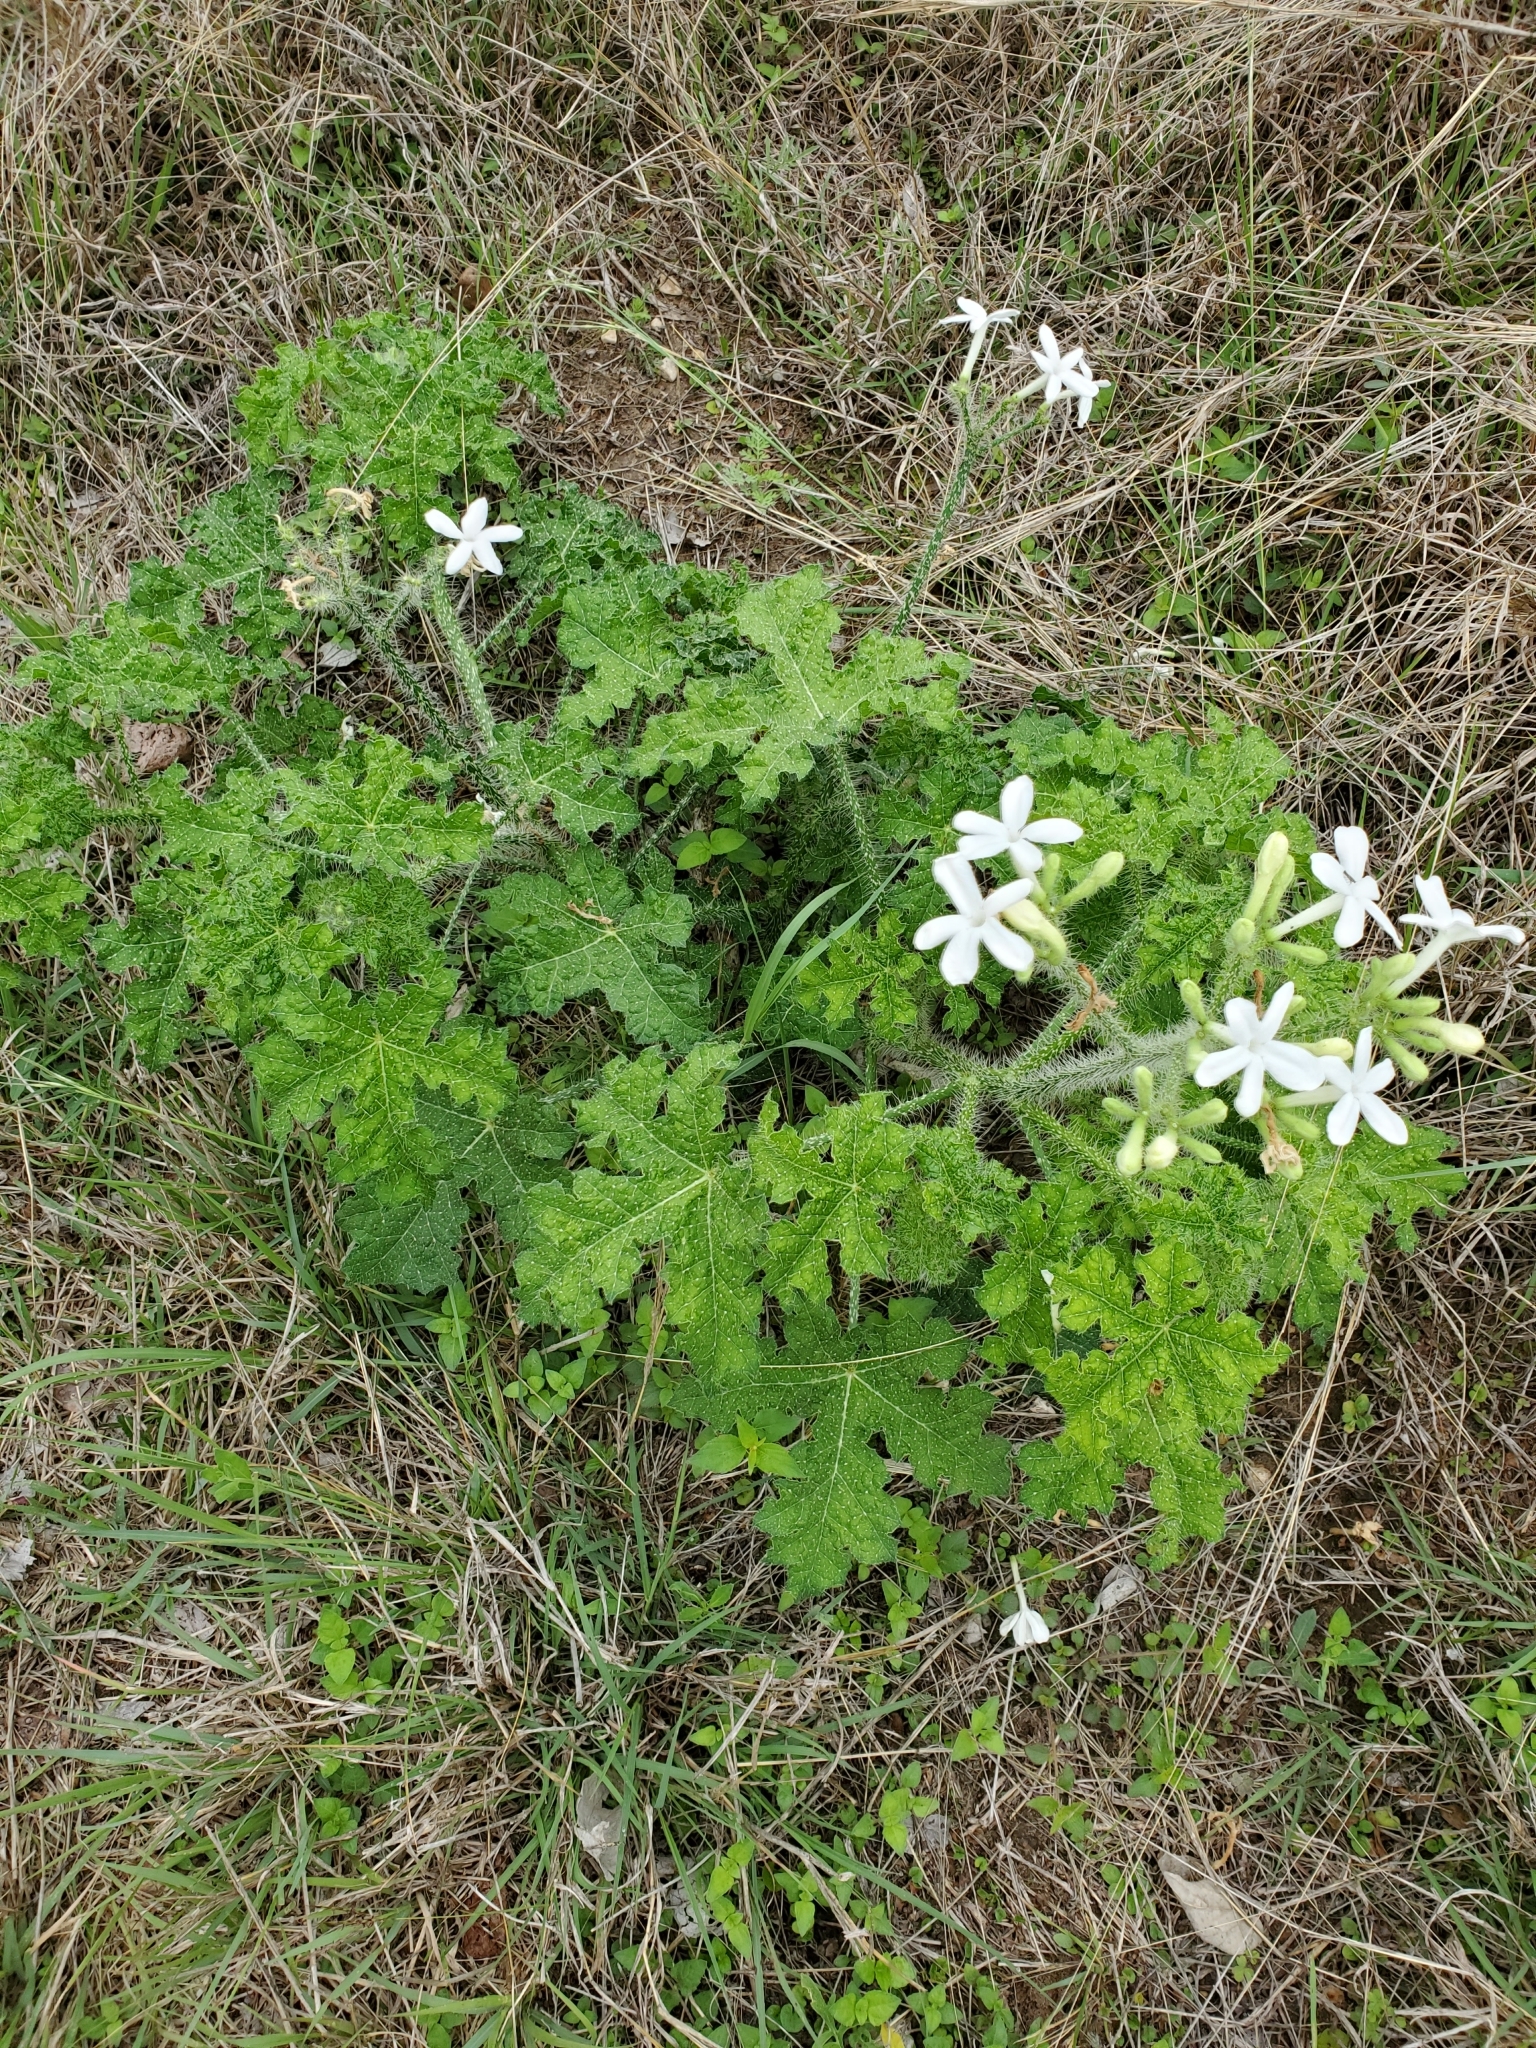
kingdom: Plantae
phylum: Tracheophyta
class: Magnoliopsida
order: Malpighiales
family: Euphorbiaceae
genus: Cnidoscolus
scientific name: Cnidoscolus texanus
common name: Texas bull-nettle
